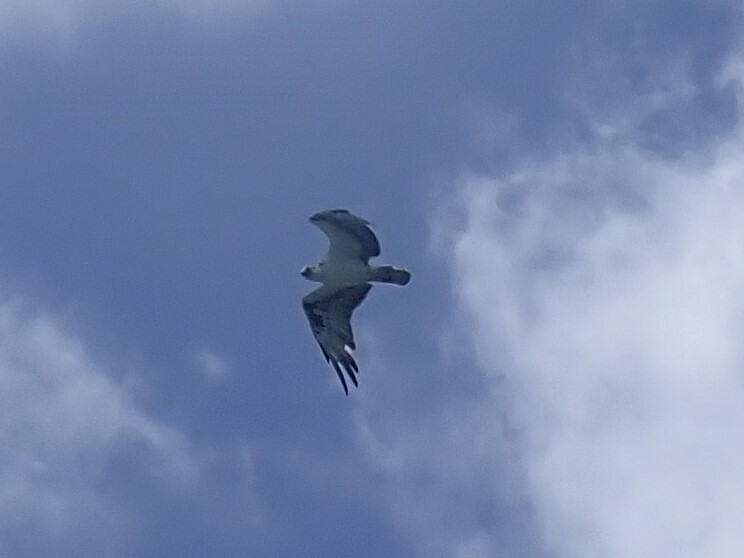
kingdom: Animalia
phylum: Chordata
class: Aves
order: Accipitriformes
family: Pandionidae
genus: Pandion
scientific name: Pandion haliaetus
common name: Osprey
